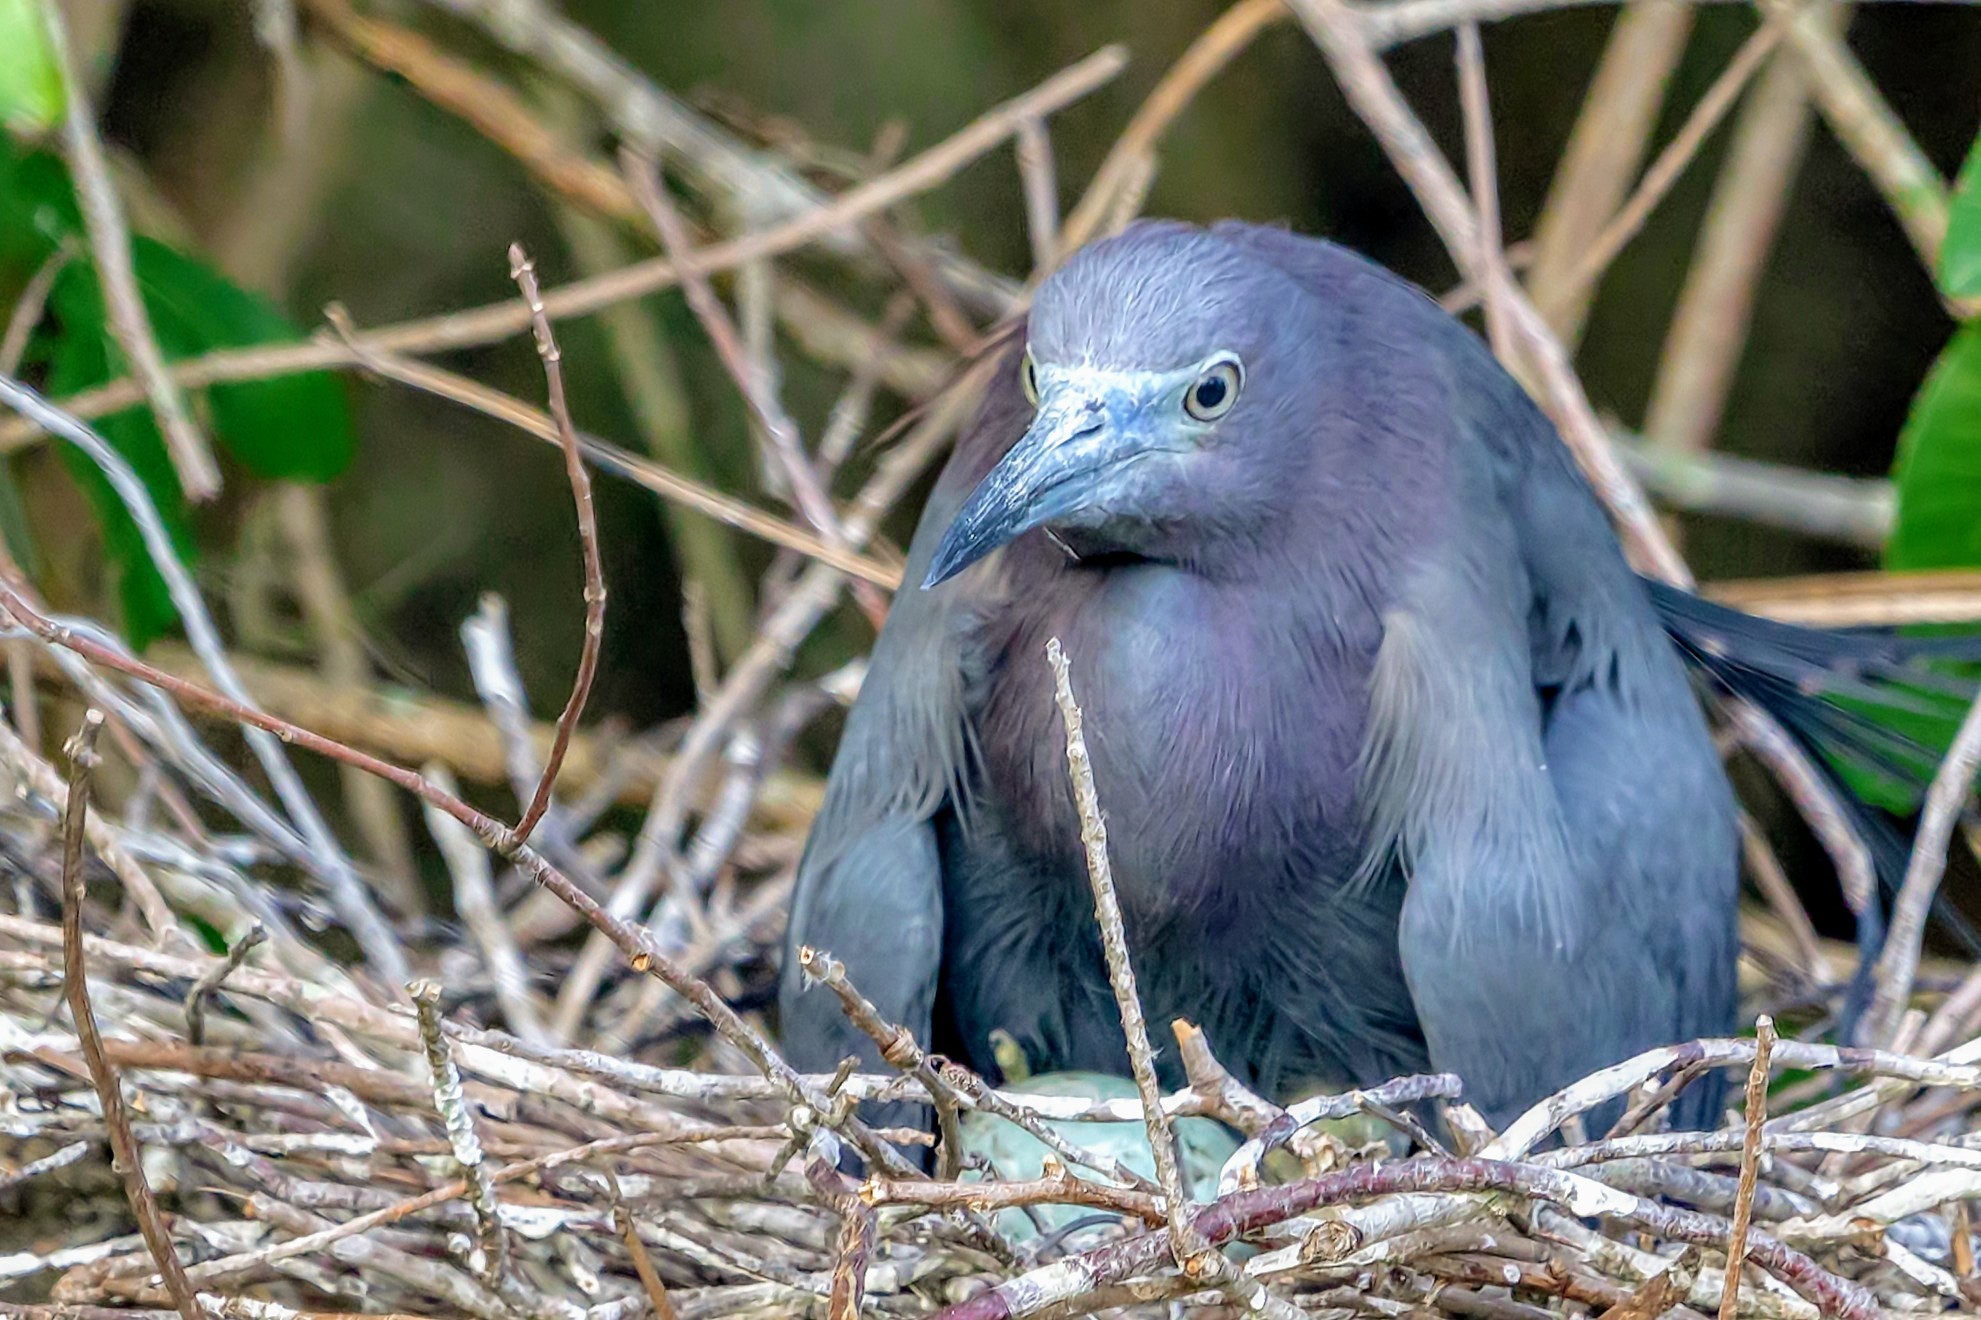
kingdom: Animalia
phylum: Chordata
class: Aves
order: Pelecaniformes
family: Ardeidae
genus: Egretta
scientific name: Egretta caerulea
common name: Little blue heron
